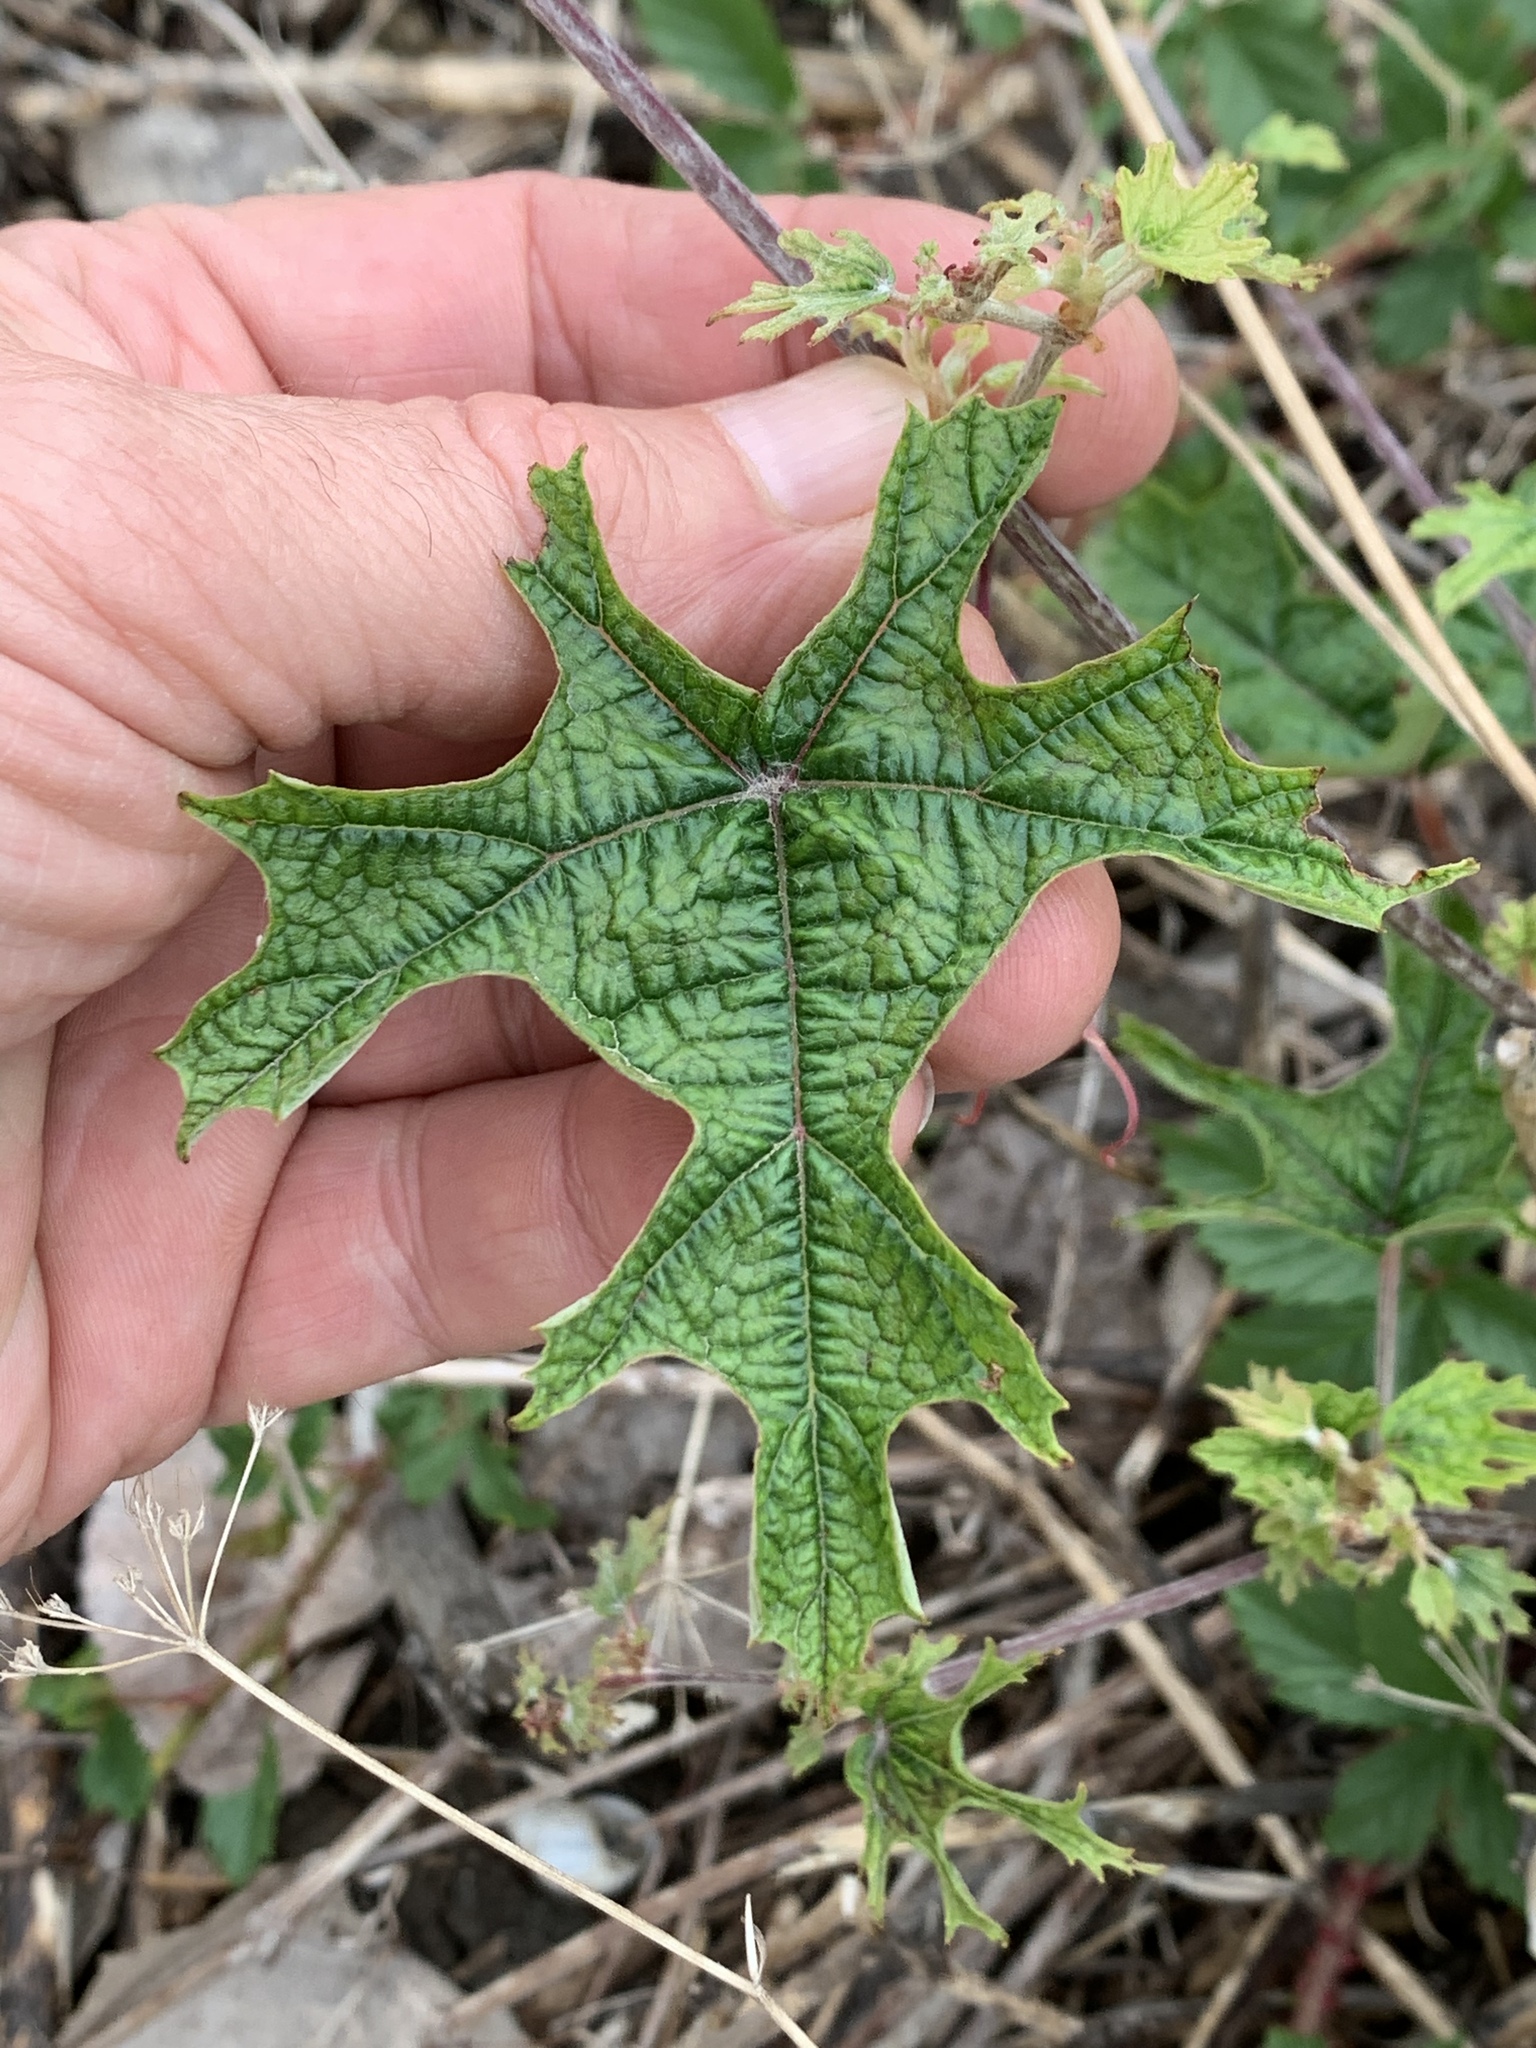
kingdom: Plantae
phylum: Tracheophyta
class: Magnoliopsida
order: Vitales
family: Vitaceae
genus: Vitis
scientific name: Vitis mustangensis
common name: Mustang grape
